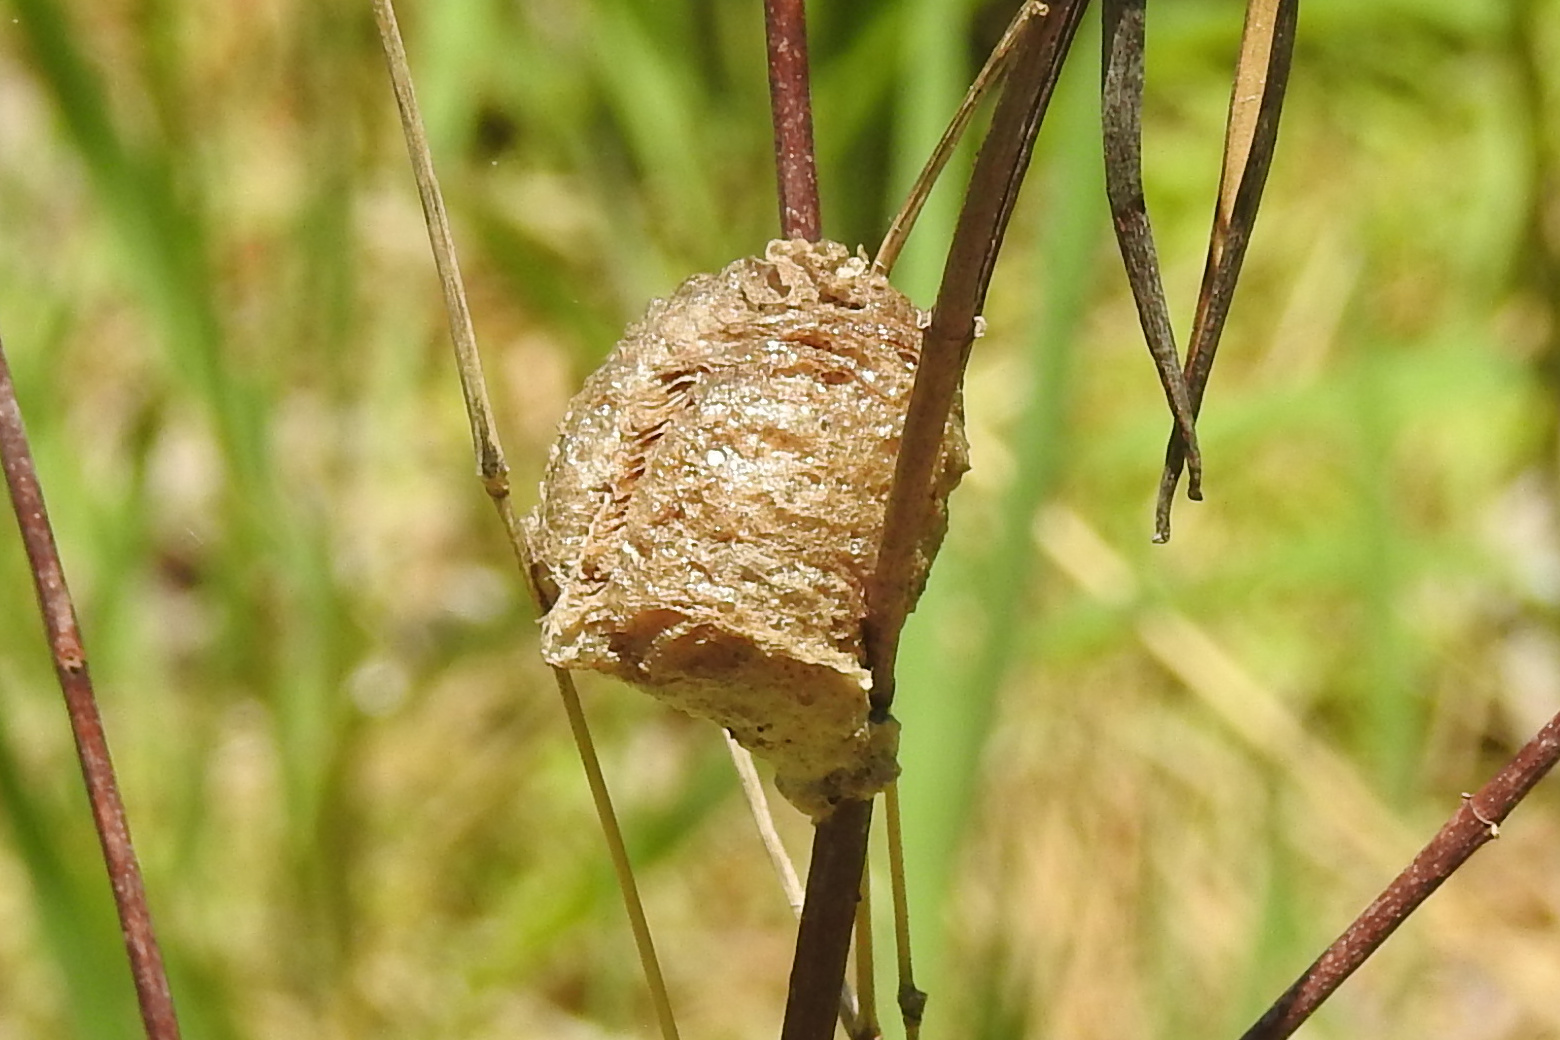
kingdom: Animalia
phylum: Arthropoda
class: Insecta
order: Mantodea
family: Mantidae
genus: Tenodera
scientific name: Tenodera sinensis
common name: Chinese mantis
